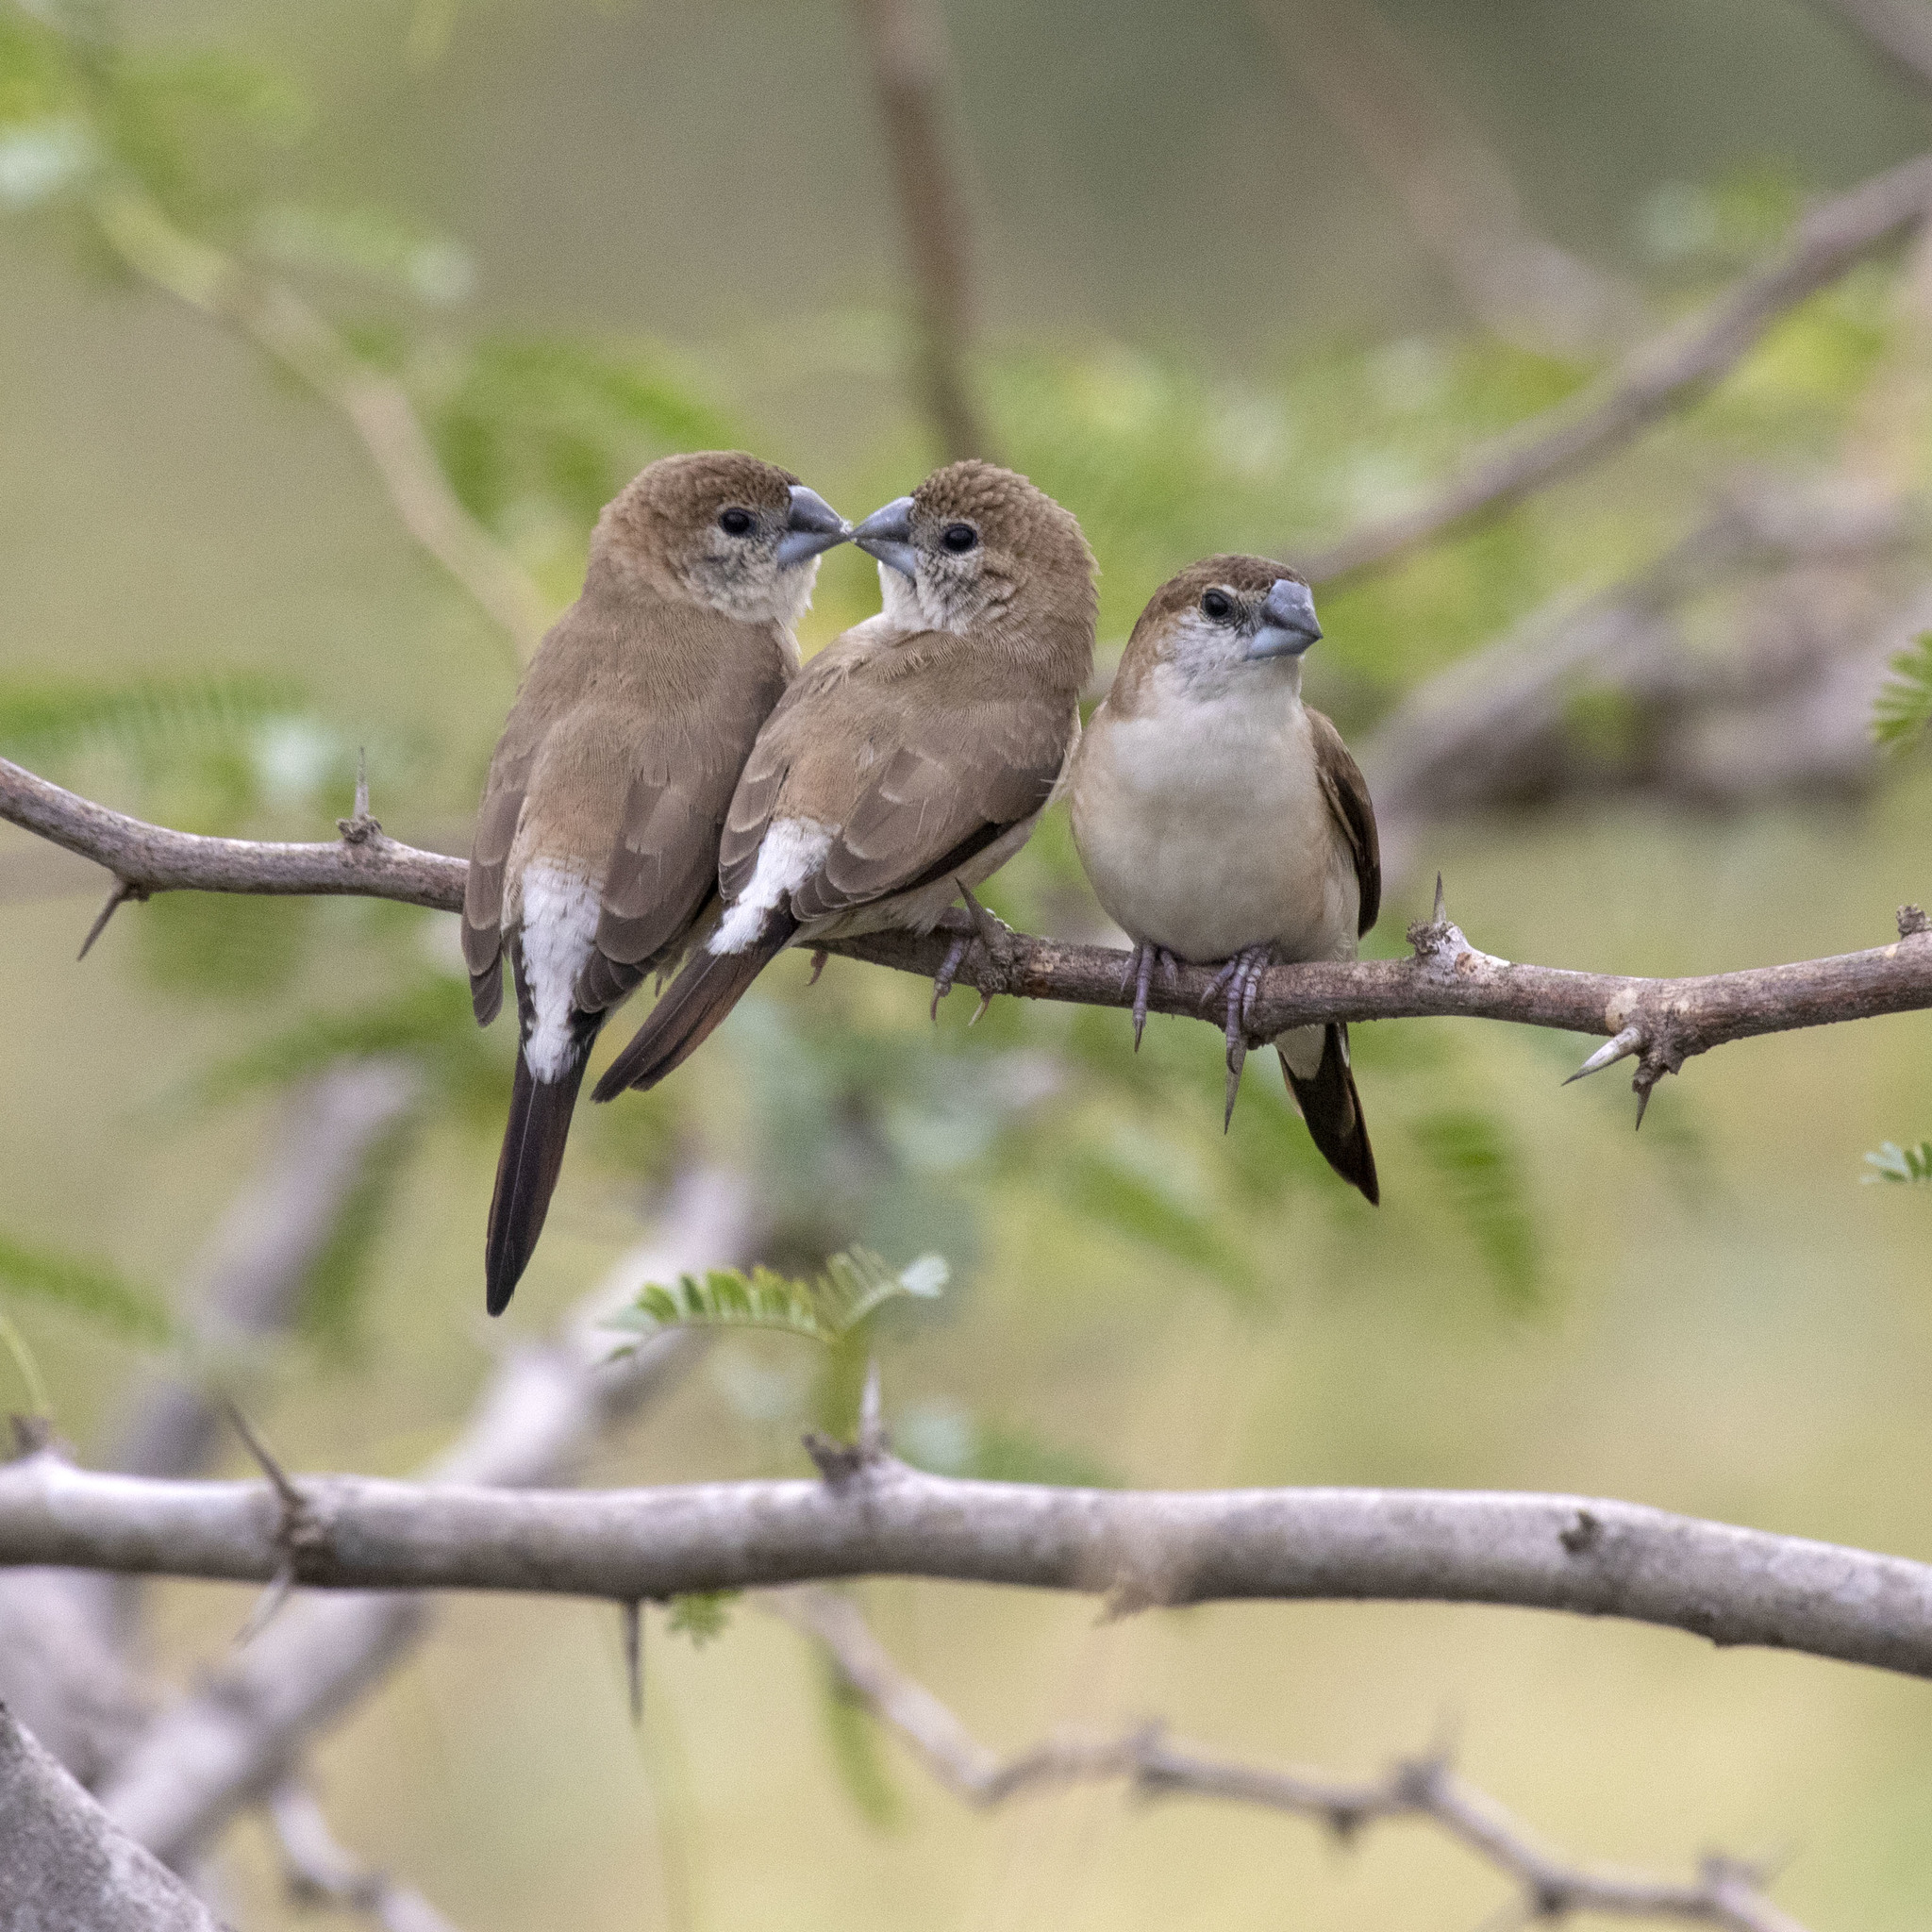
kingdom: Animalia
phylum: Chordata
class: Aves
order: Passeriformes
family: Estrildidae
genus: Euodice
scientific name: Euodice malabarica
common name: Indian silverbill
